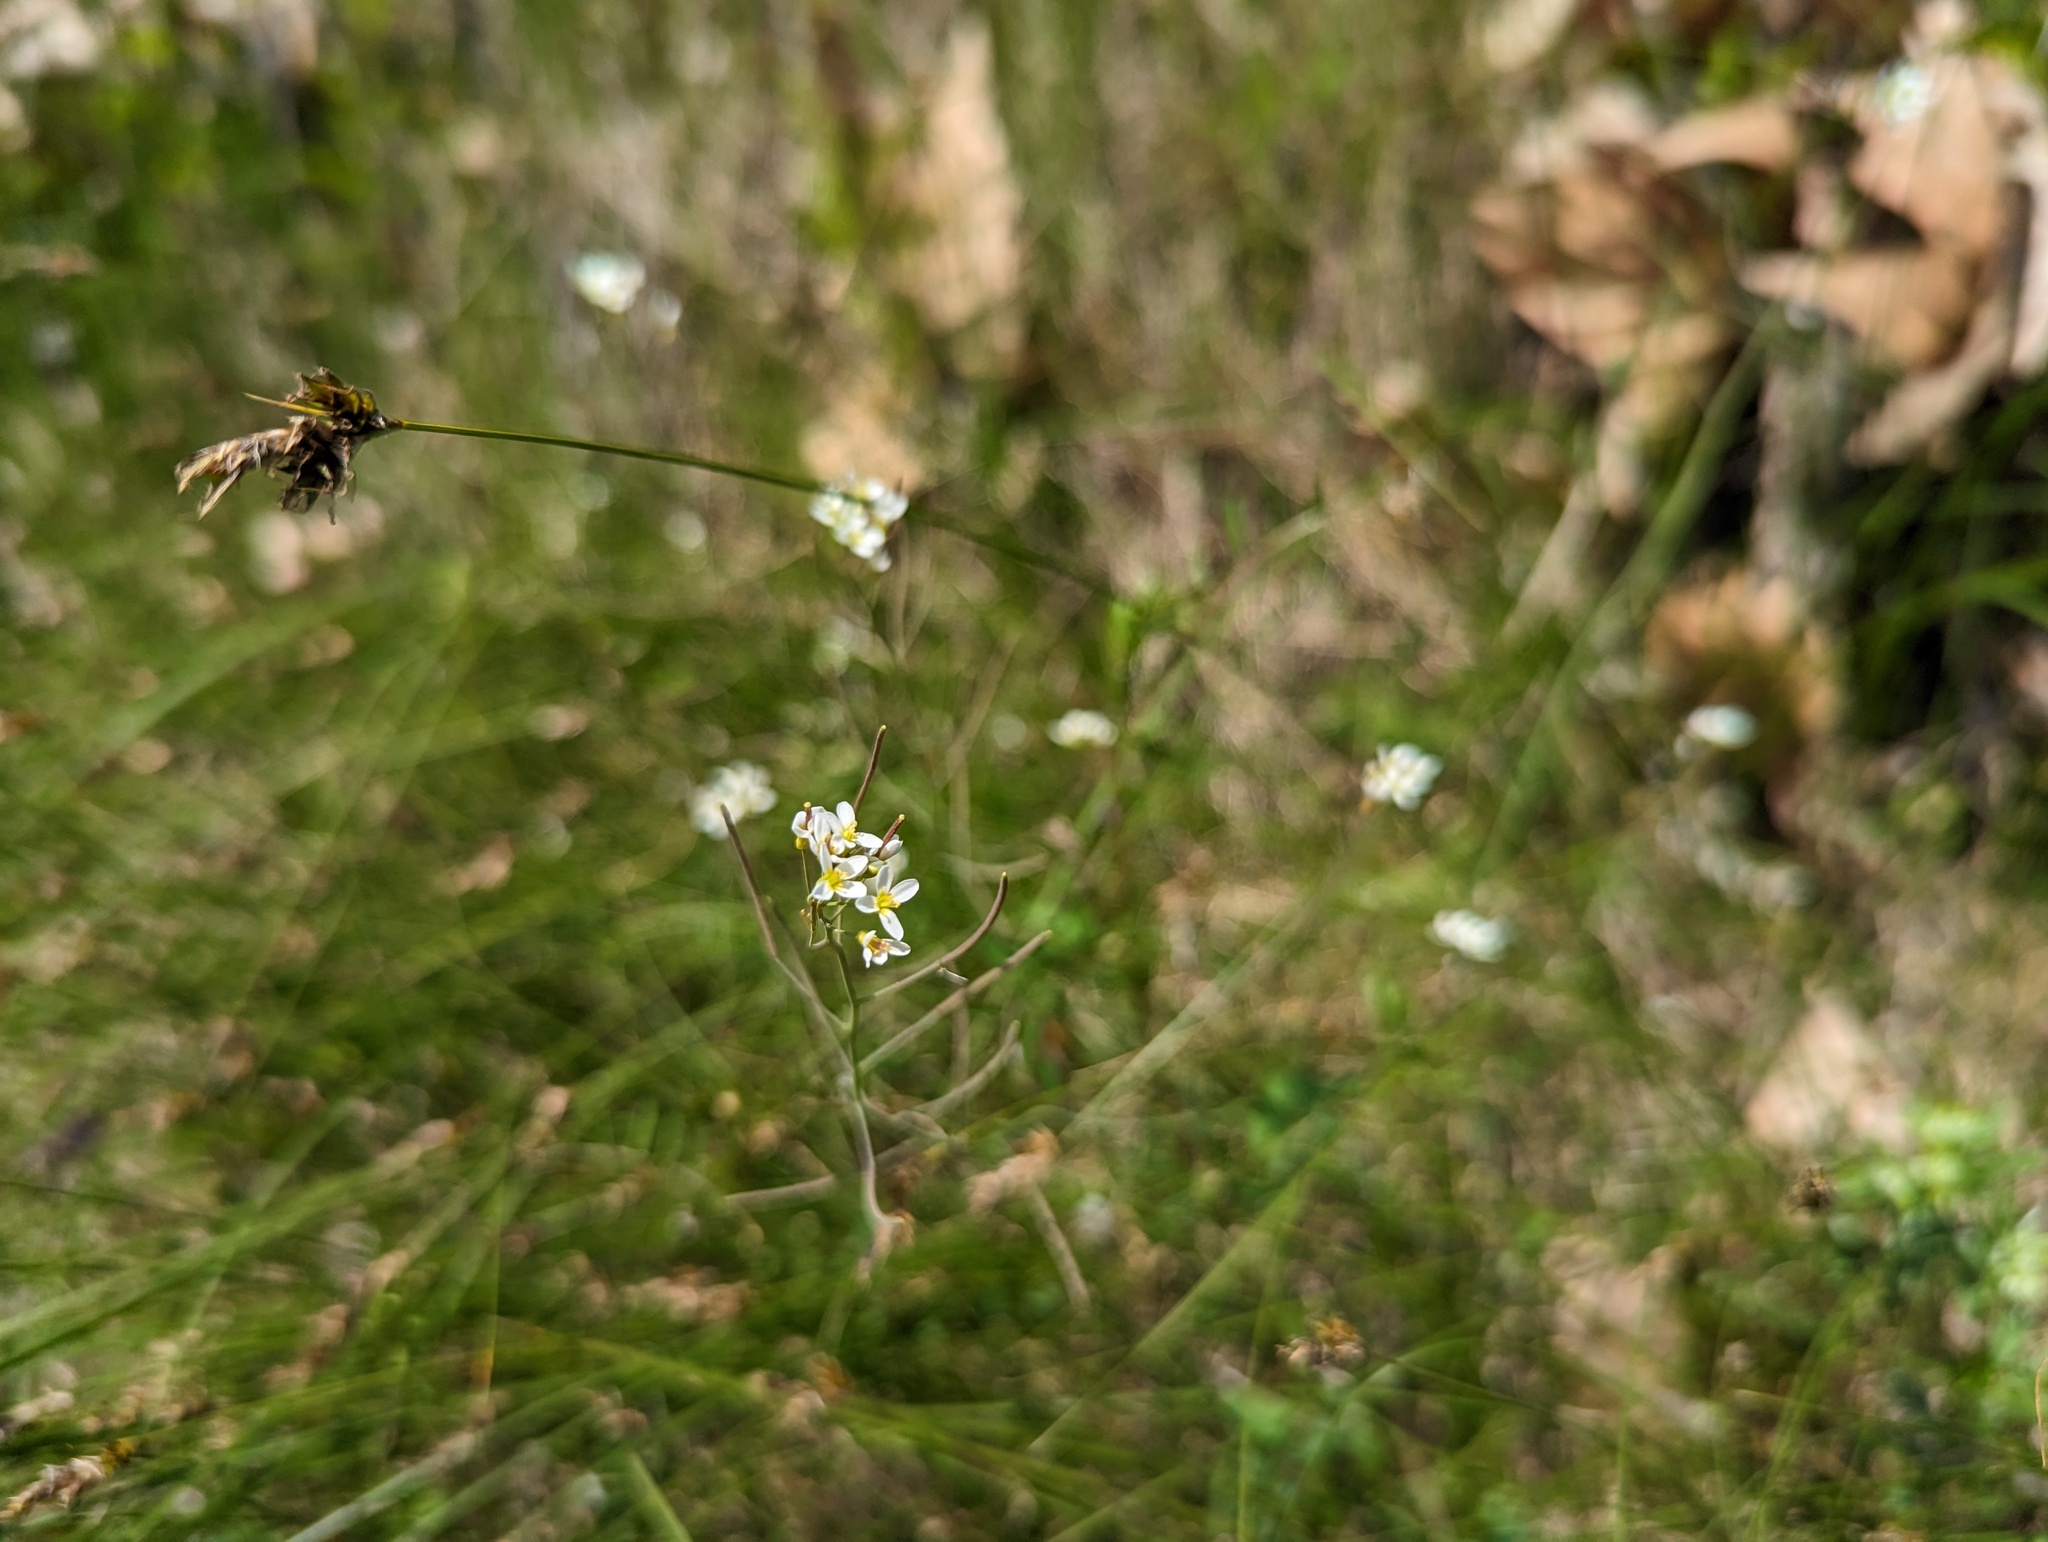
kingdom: Plantae
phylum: Tracheophyta
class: Magnoliopsida
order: Brassicales
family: Brassicaceae
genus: Arabidopsis
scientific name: Arabidopsis thaliana
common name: Thale cress
